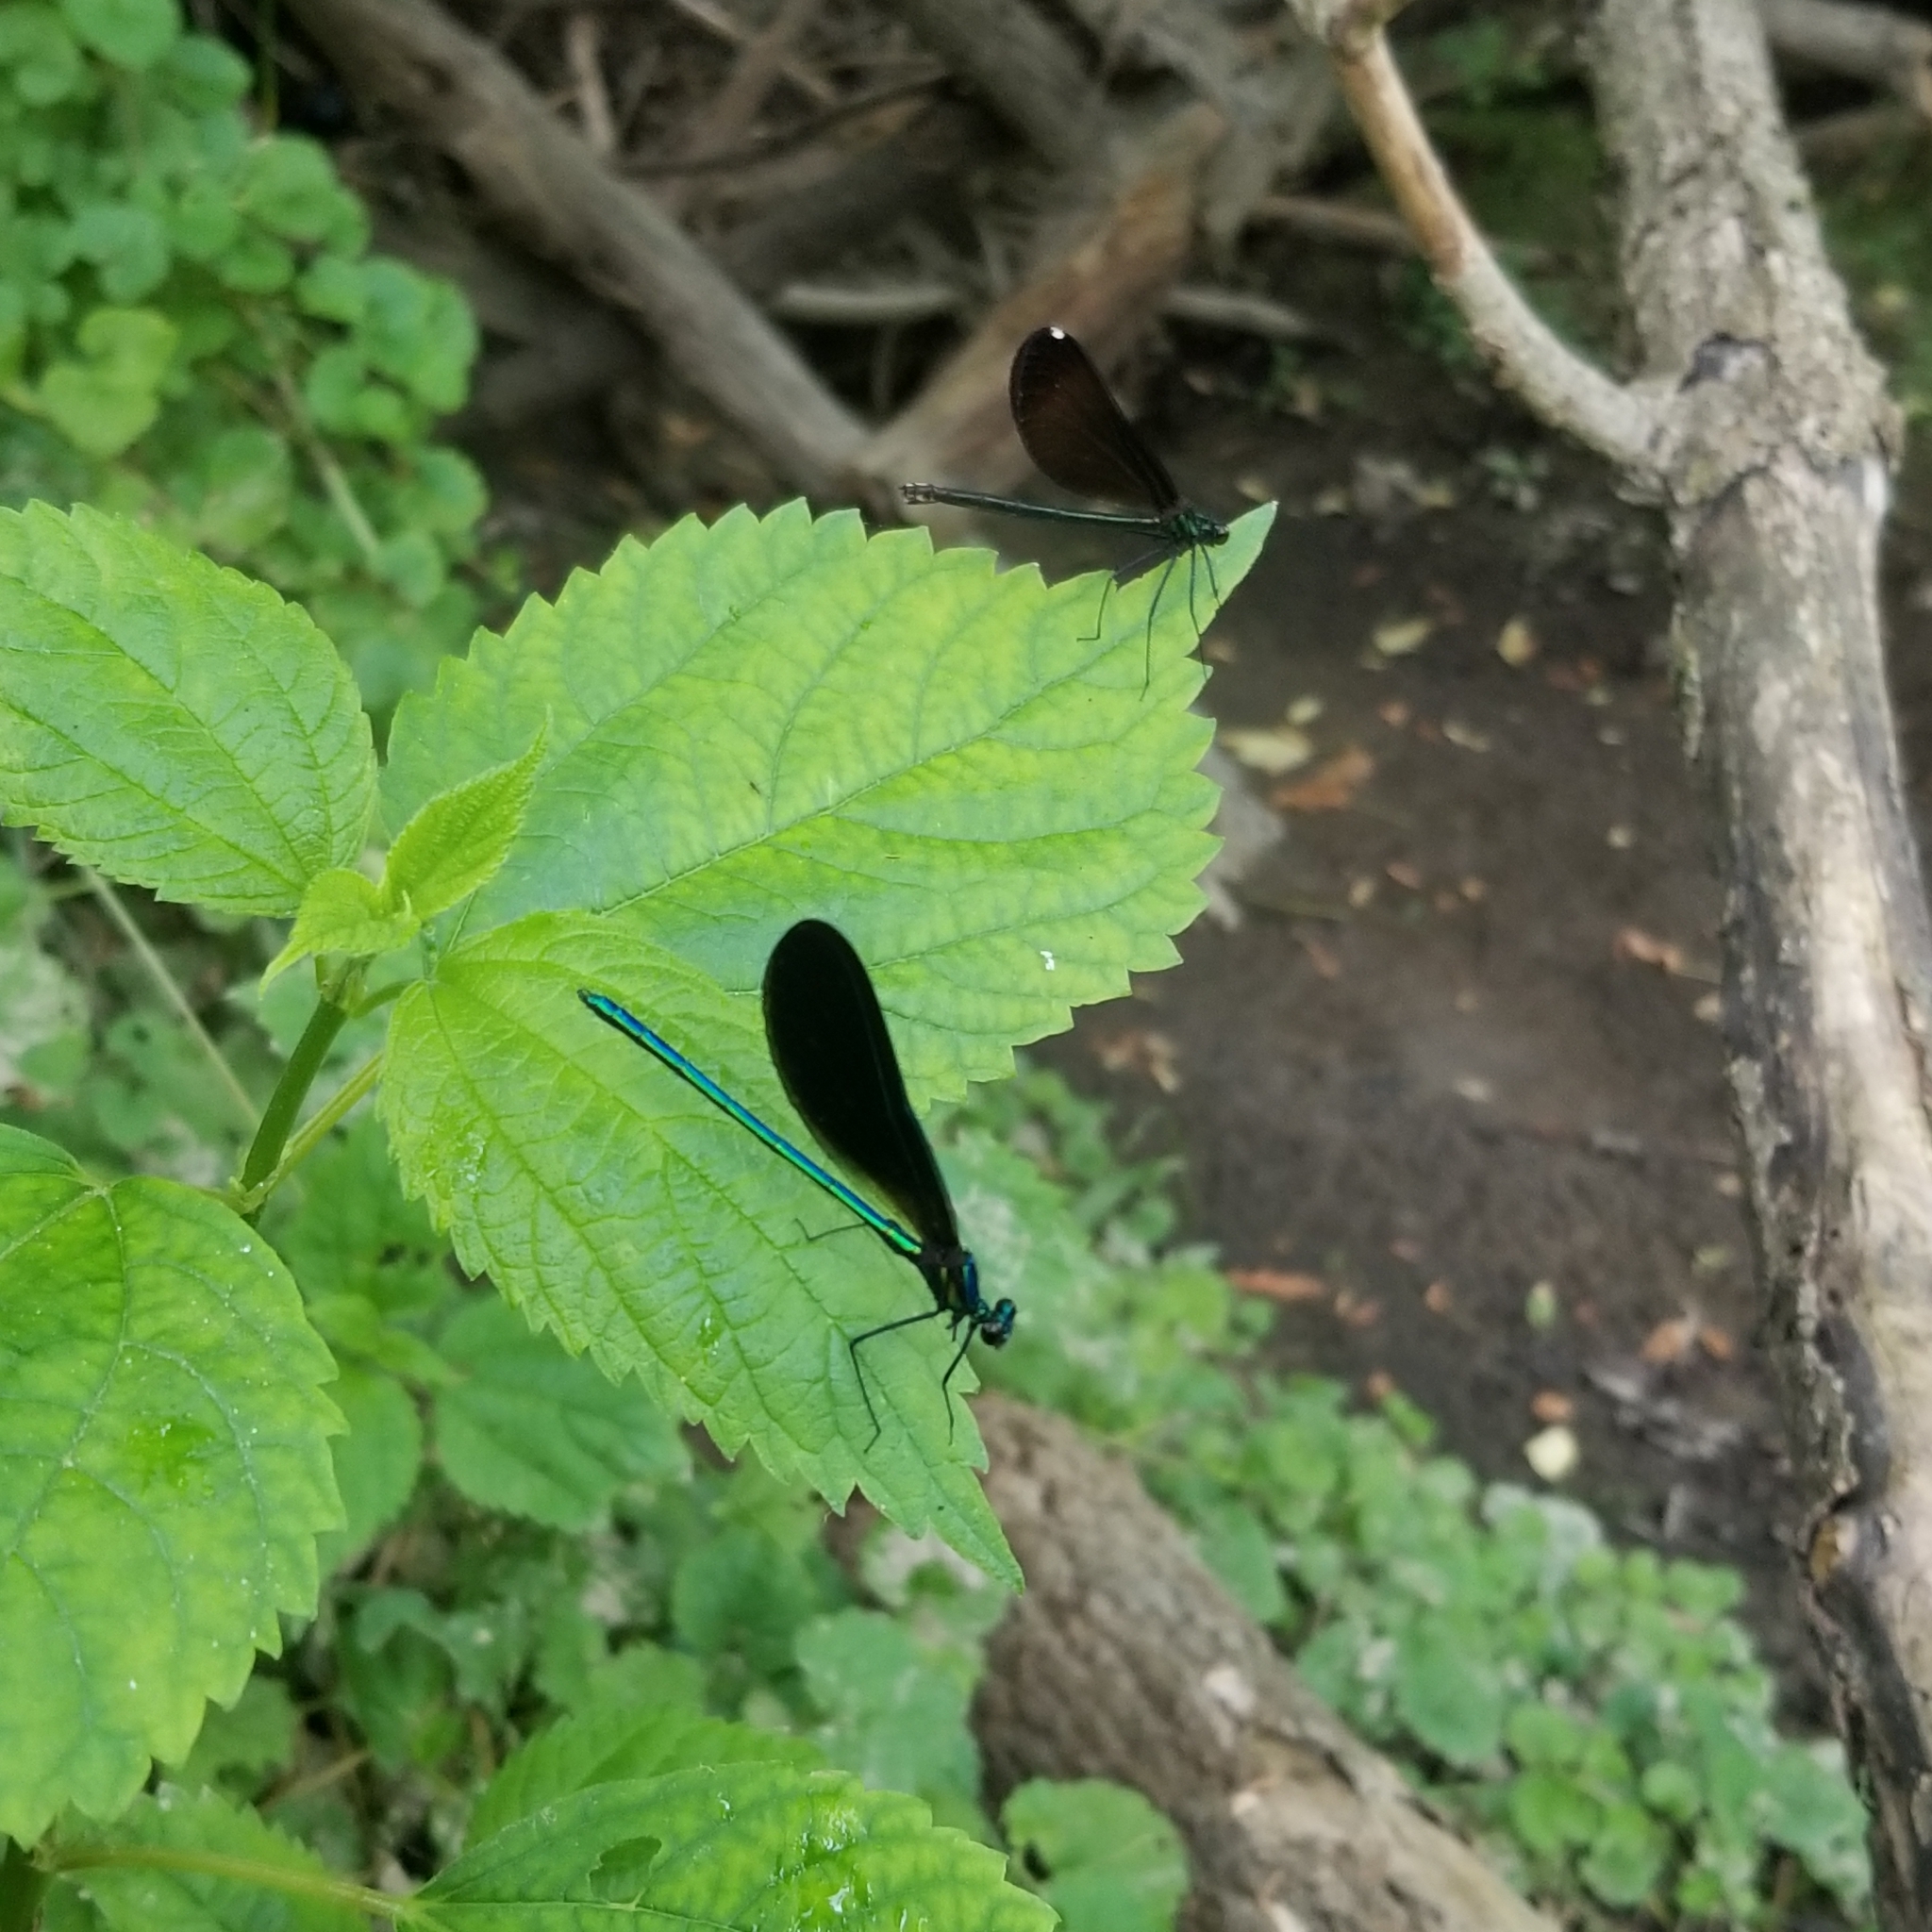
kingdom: Animalia
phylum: Arthropoda
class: Insecta
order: Odonata
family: Calopterygidae
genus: Calopteryx
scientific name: Calopteryx maculata
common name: Ebony jewelwing
